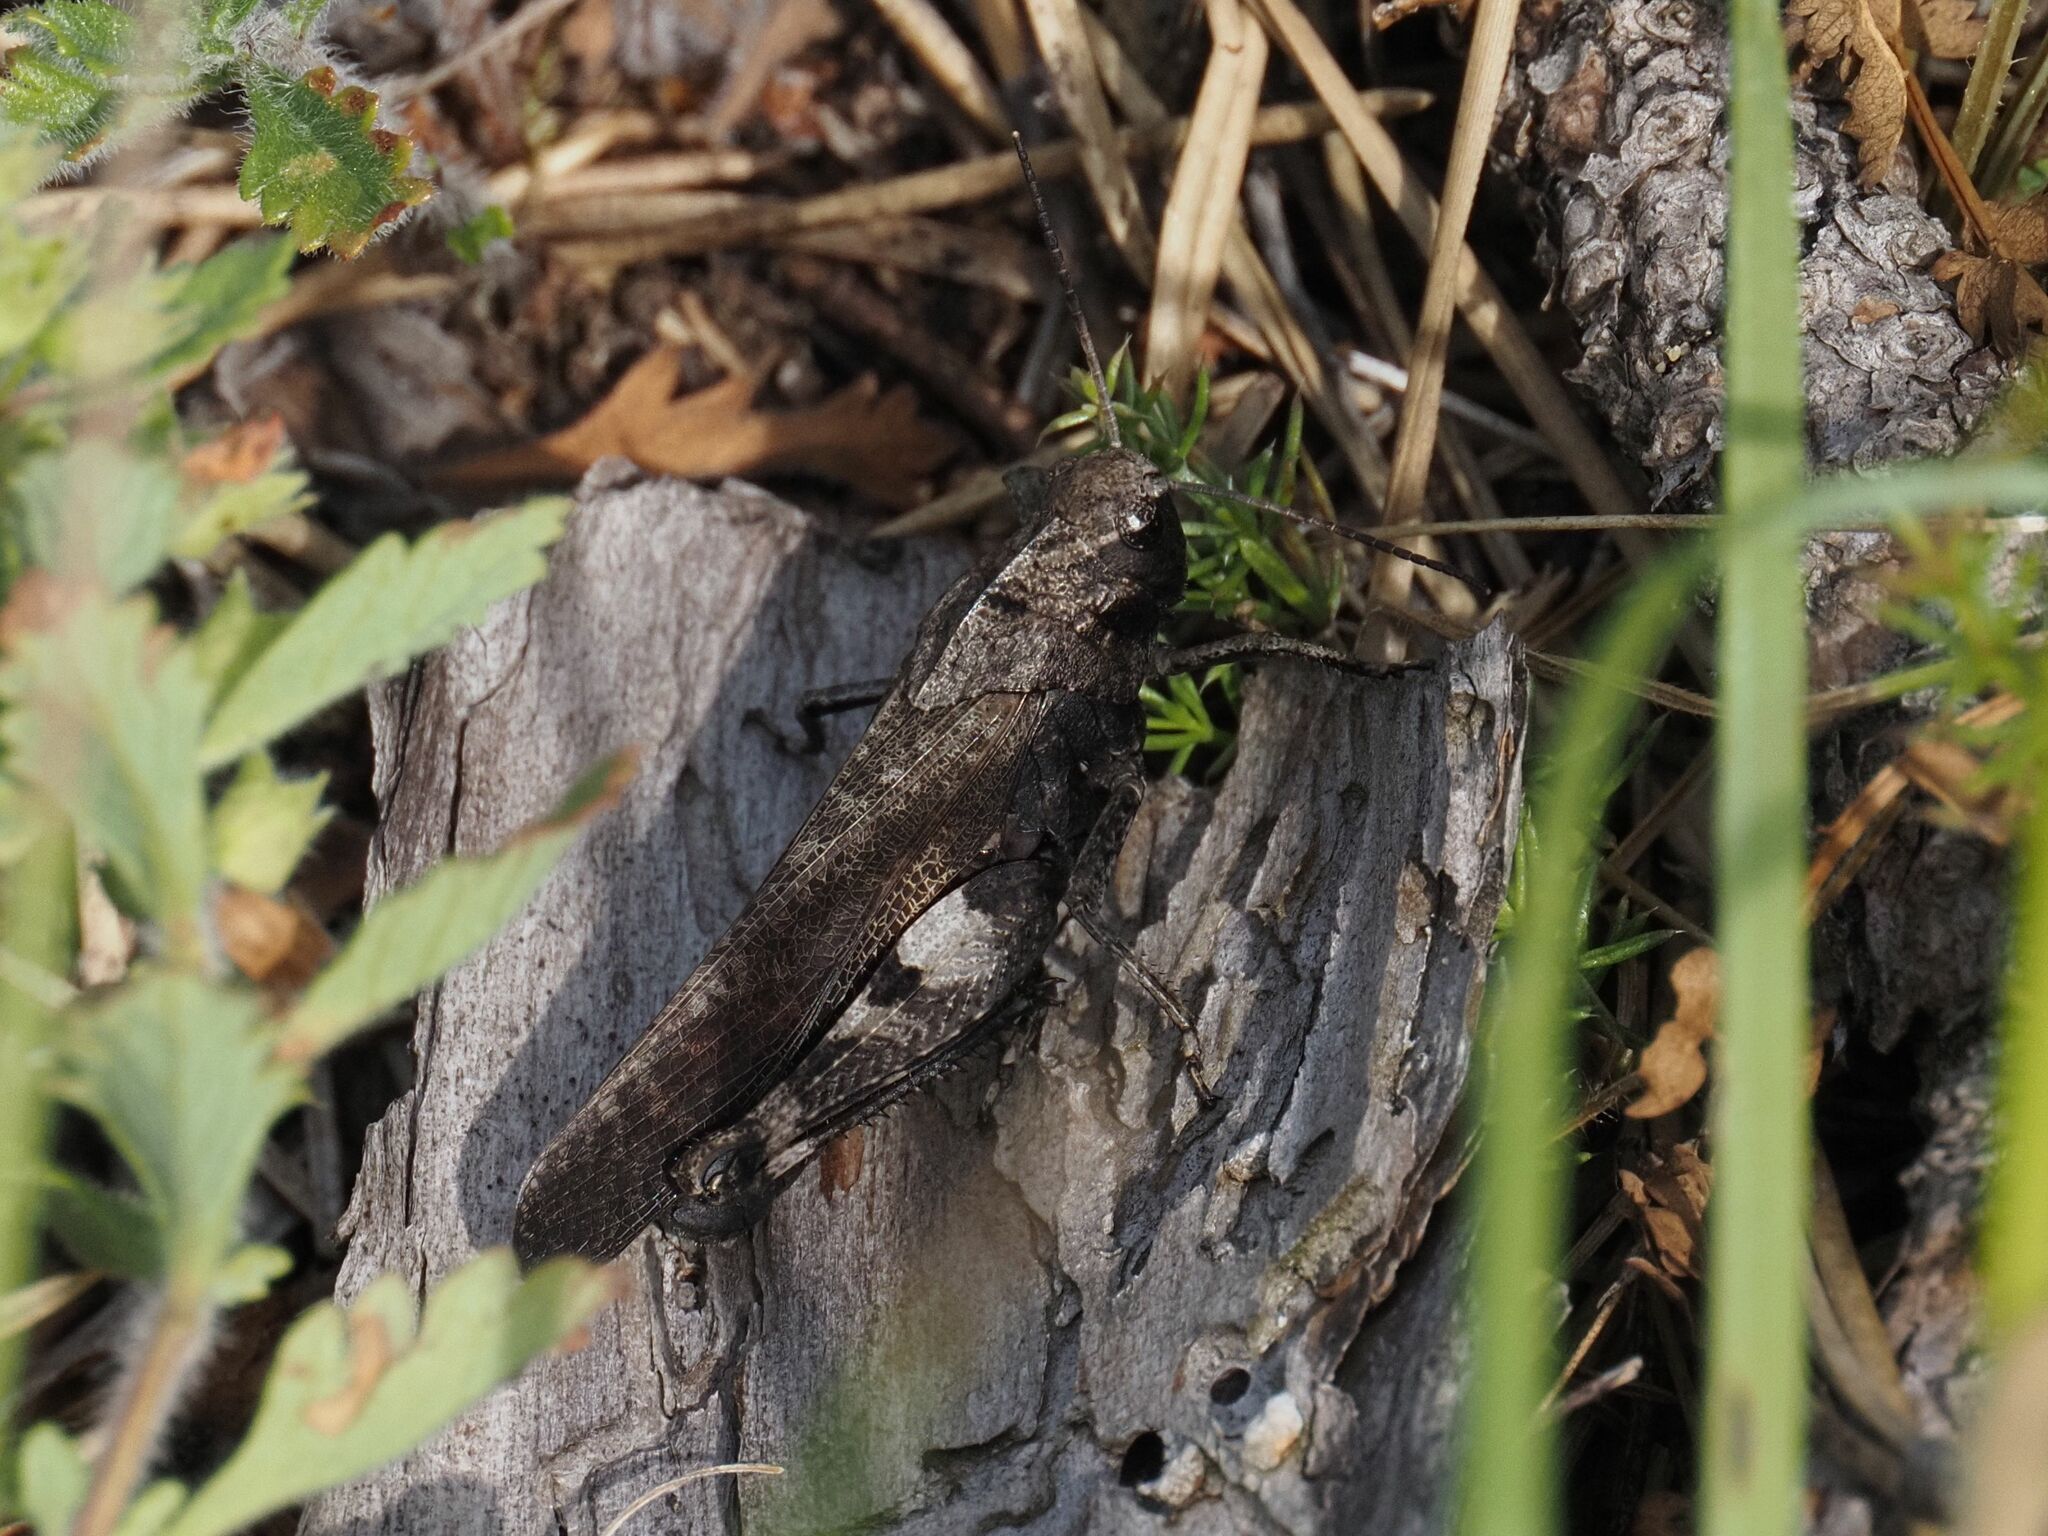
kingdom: Animalia
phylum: Arthropoda
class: Insecta
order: Orthoptera
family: Acrididae
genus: Psophus
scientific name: Psophus stridulus
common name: Rattle grasshopper
